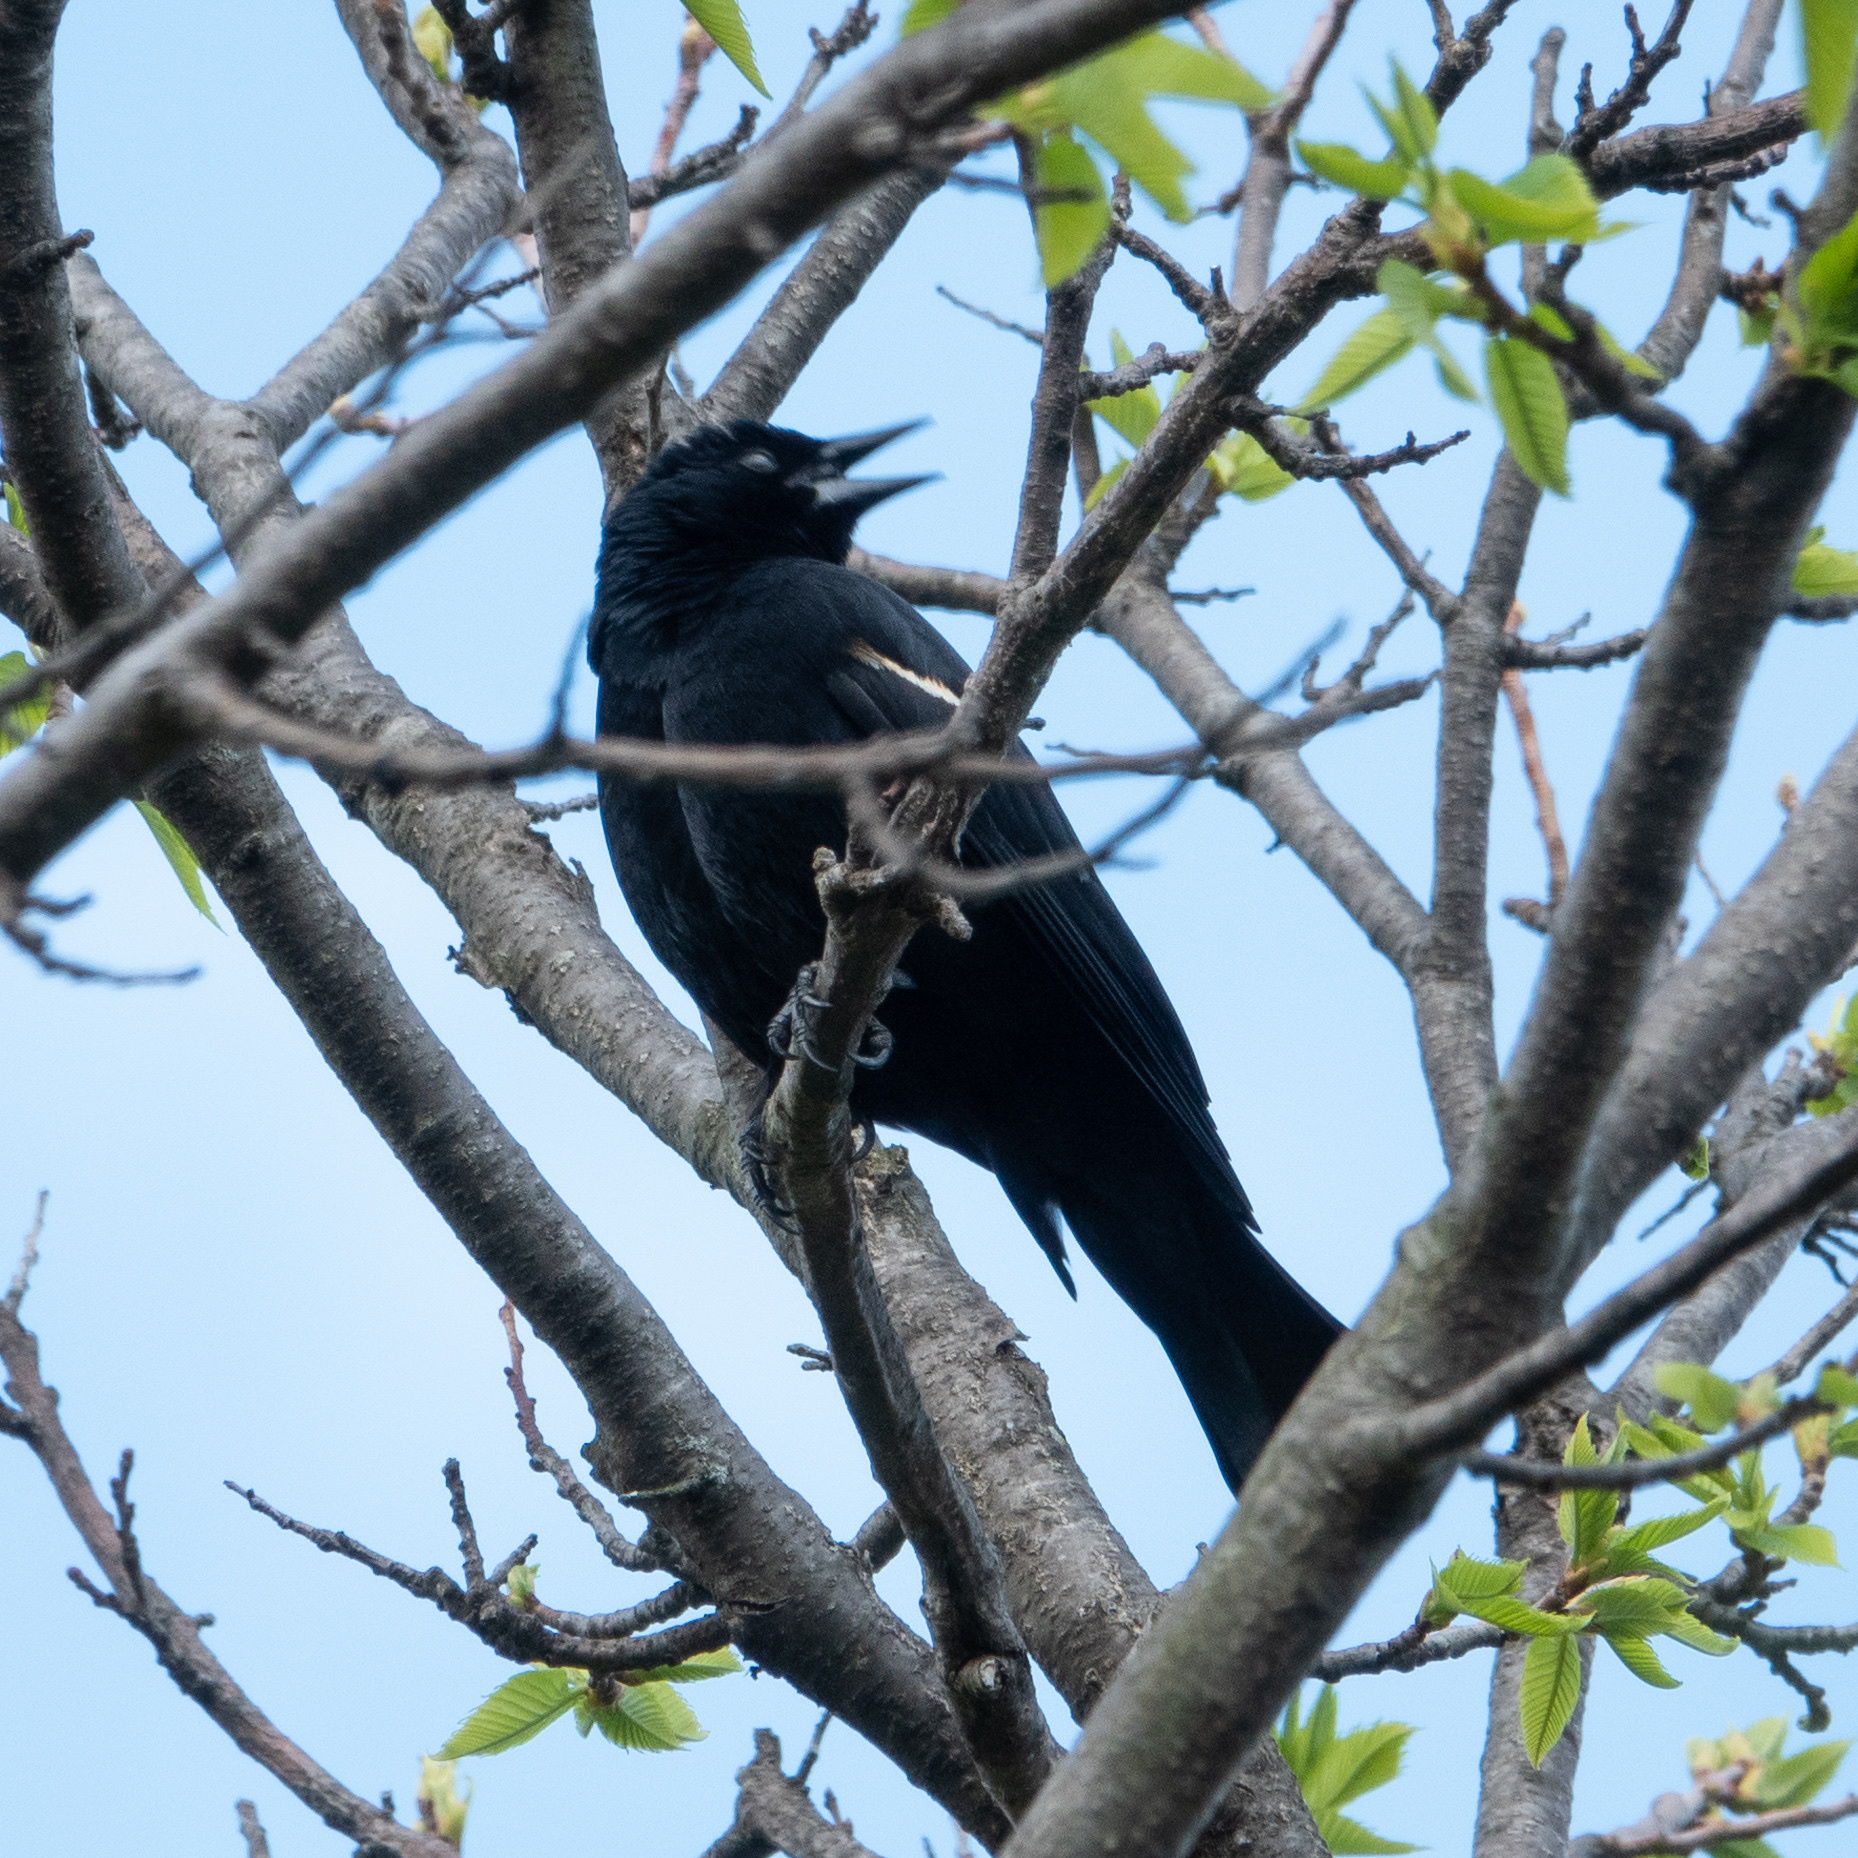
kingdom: Animalia
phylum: Chordata
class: Aves
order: Passeriformes
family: Icteridae
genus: Agelaius
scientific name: Agelaius phoeniceus
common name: Red-winged blackbird
